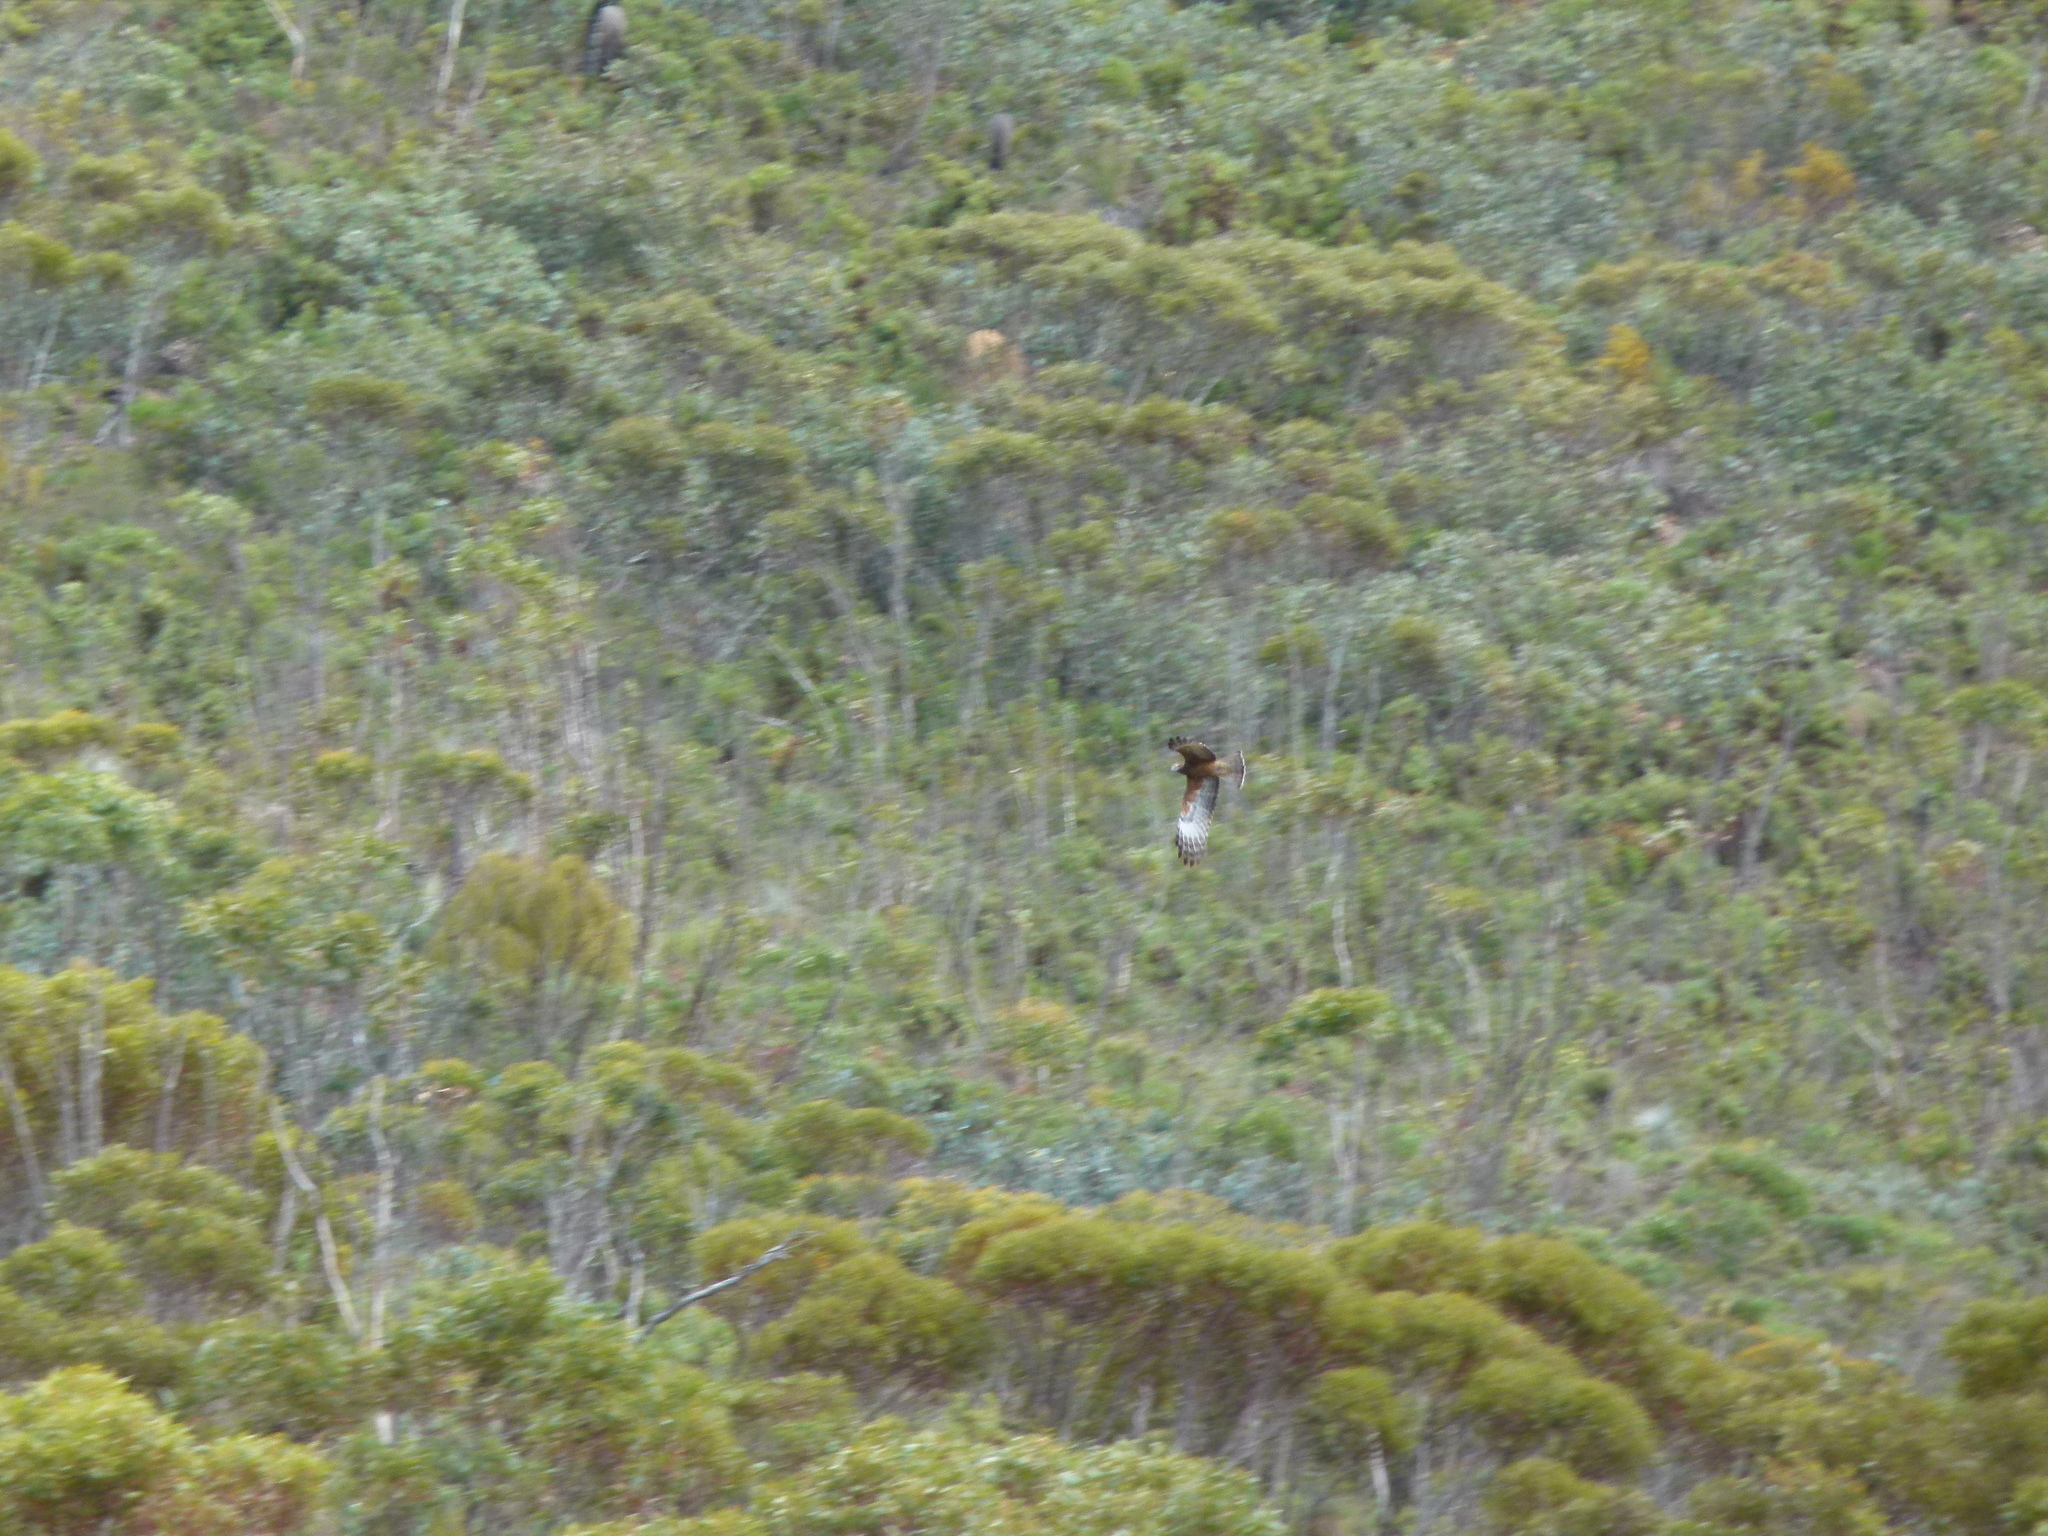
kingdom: Animalia
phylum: Chordata
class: Aves
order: Accipitriformes
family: Accipitridae
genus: Lophoictinia
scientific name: Lophoictinia isura
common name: Square-tailed kite
